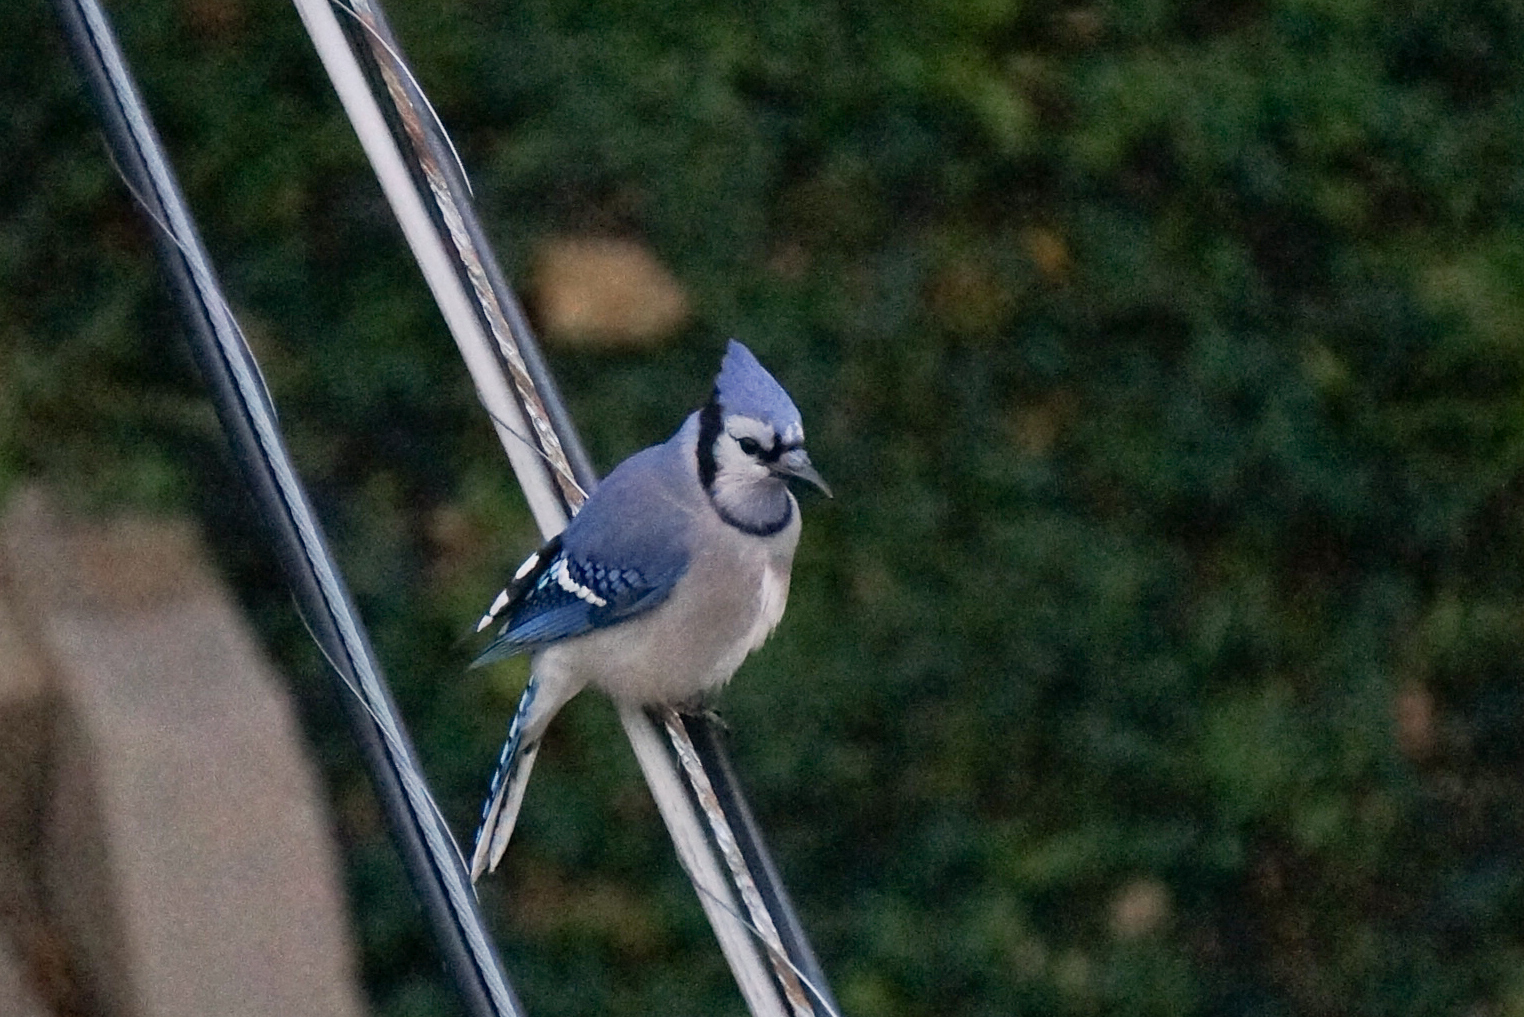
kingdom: Animalia
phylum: Chordata
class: Aves
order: Passeriformes
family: Corvidae
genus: Cyanocitta
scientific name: Cyanocitta cristata
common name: Blue jay
